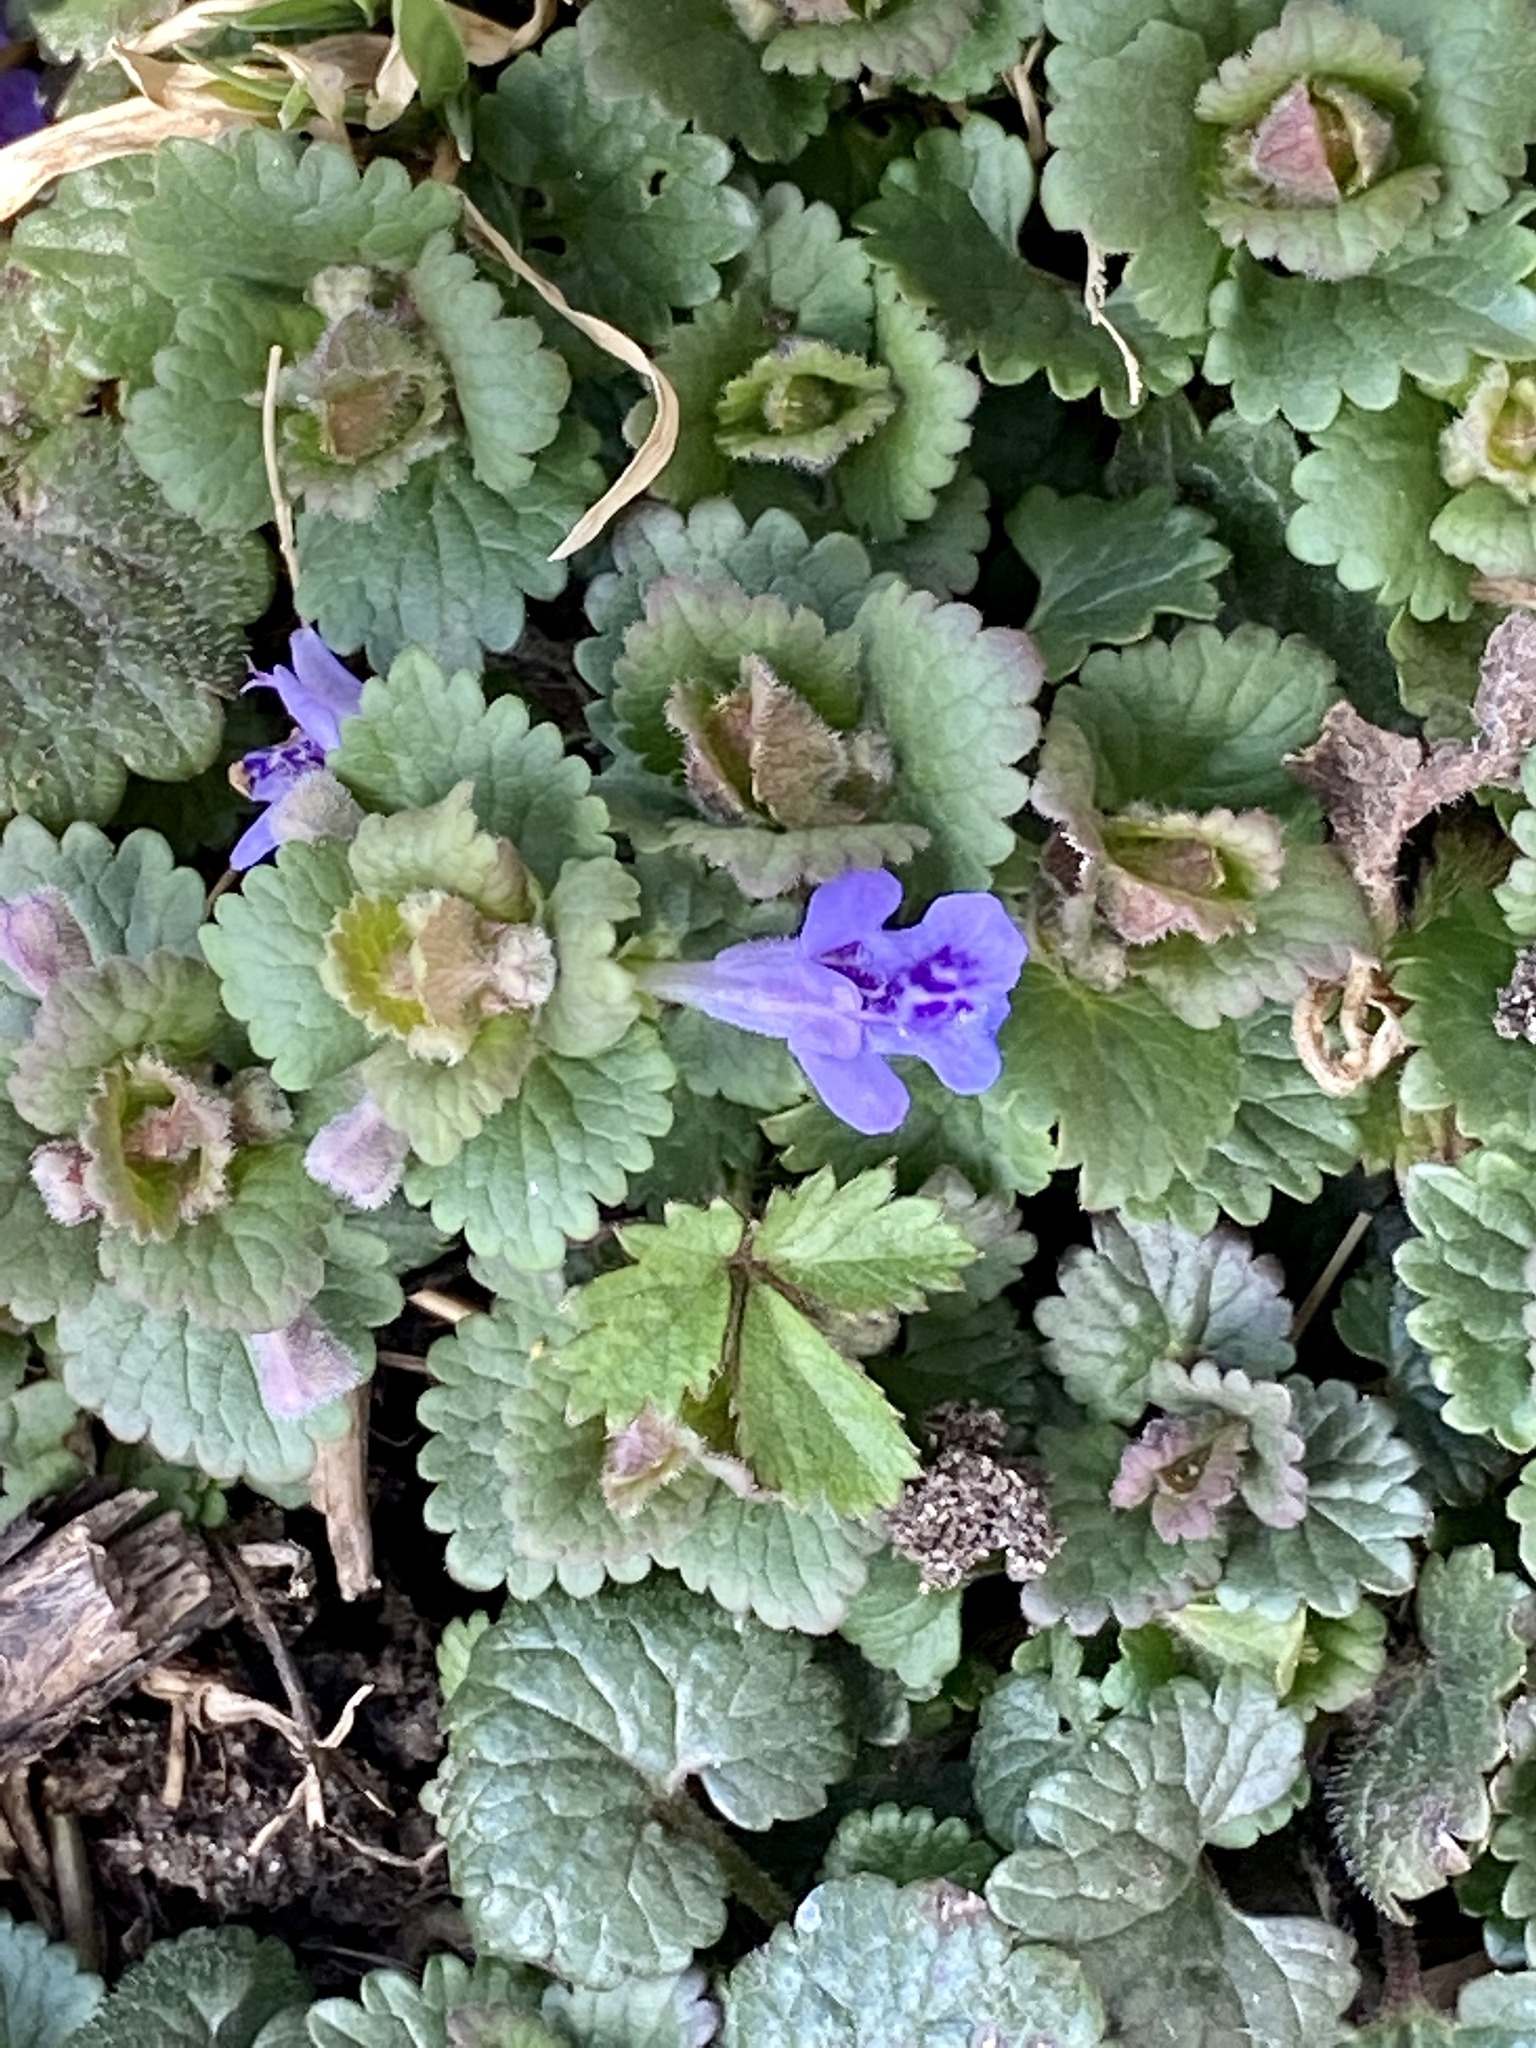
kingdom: Plantae
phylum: Tracheophyta
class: Magnoliopsida
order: Lamiales
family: Lamiaceae
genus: Glechoma
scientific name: Glechoma hederacea
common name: Ground ivy
